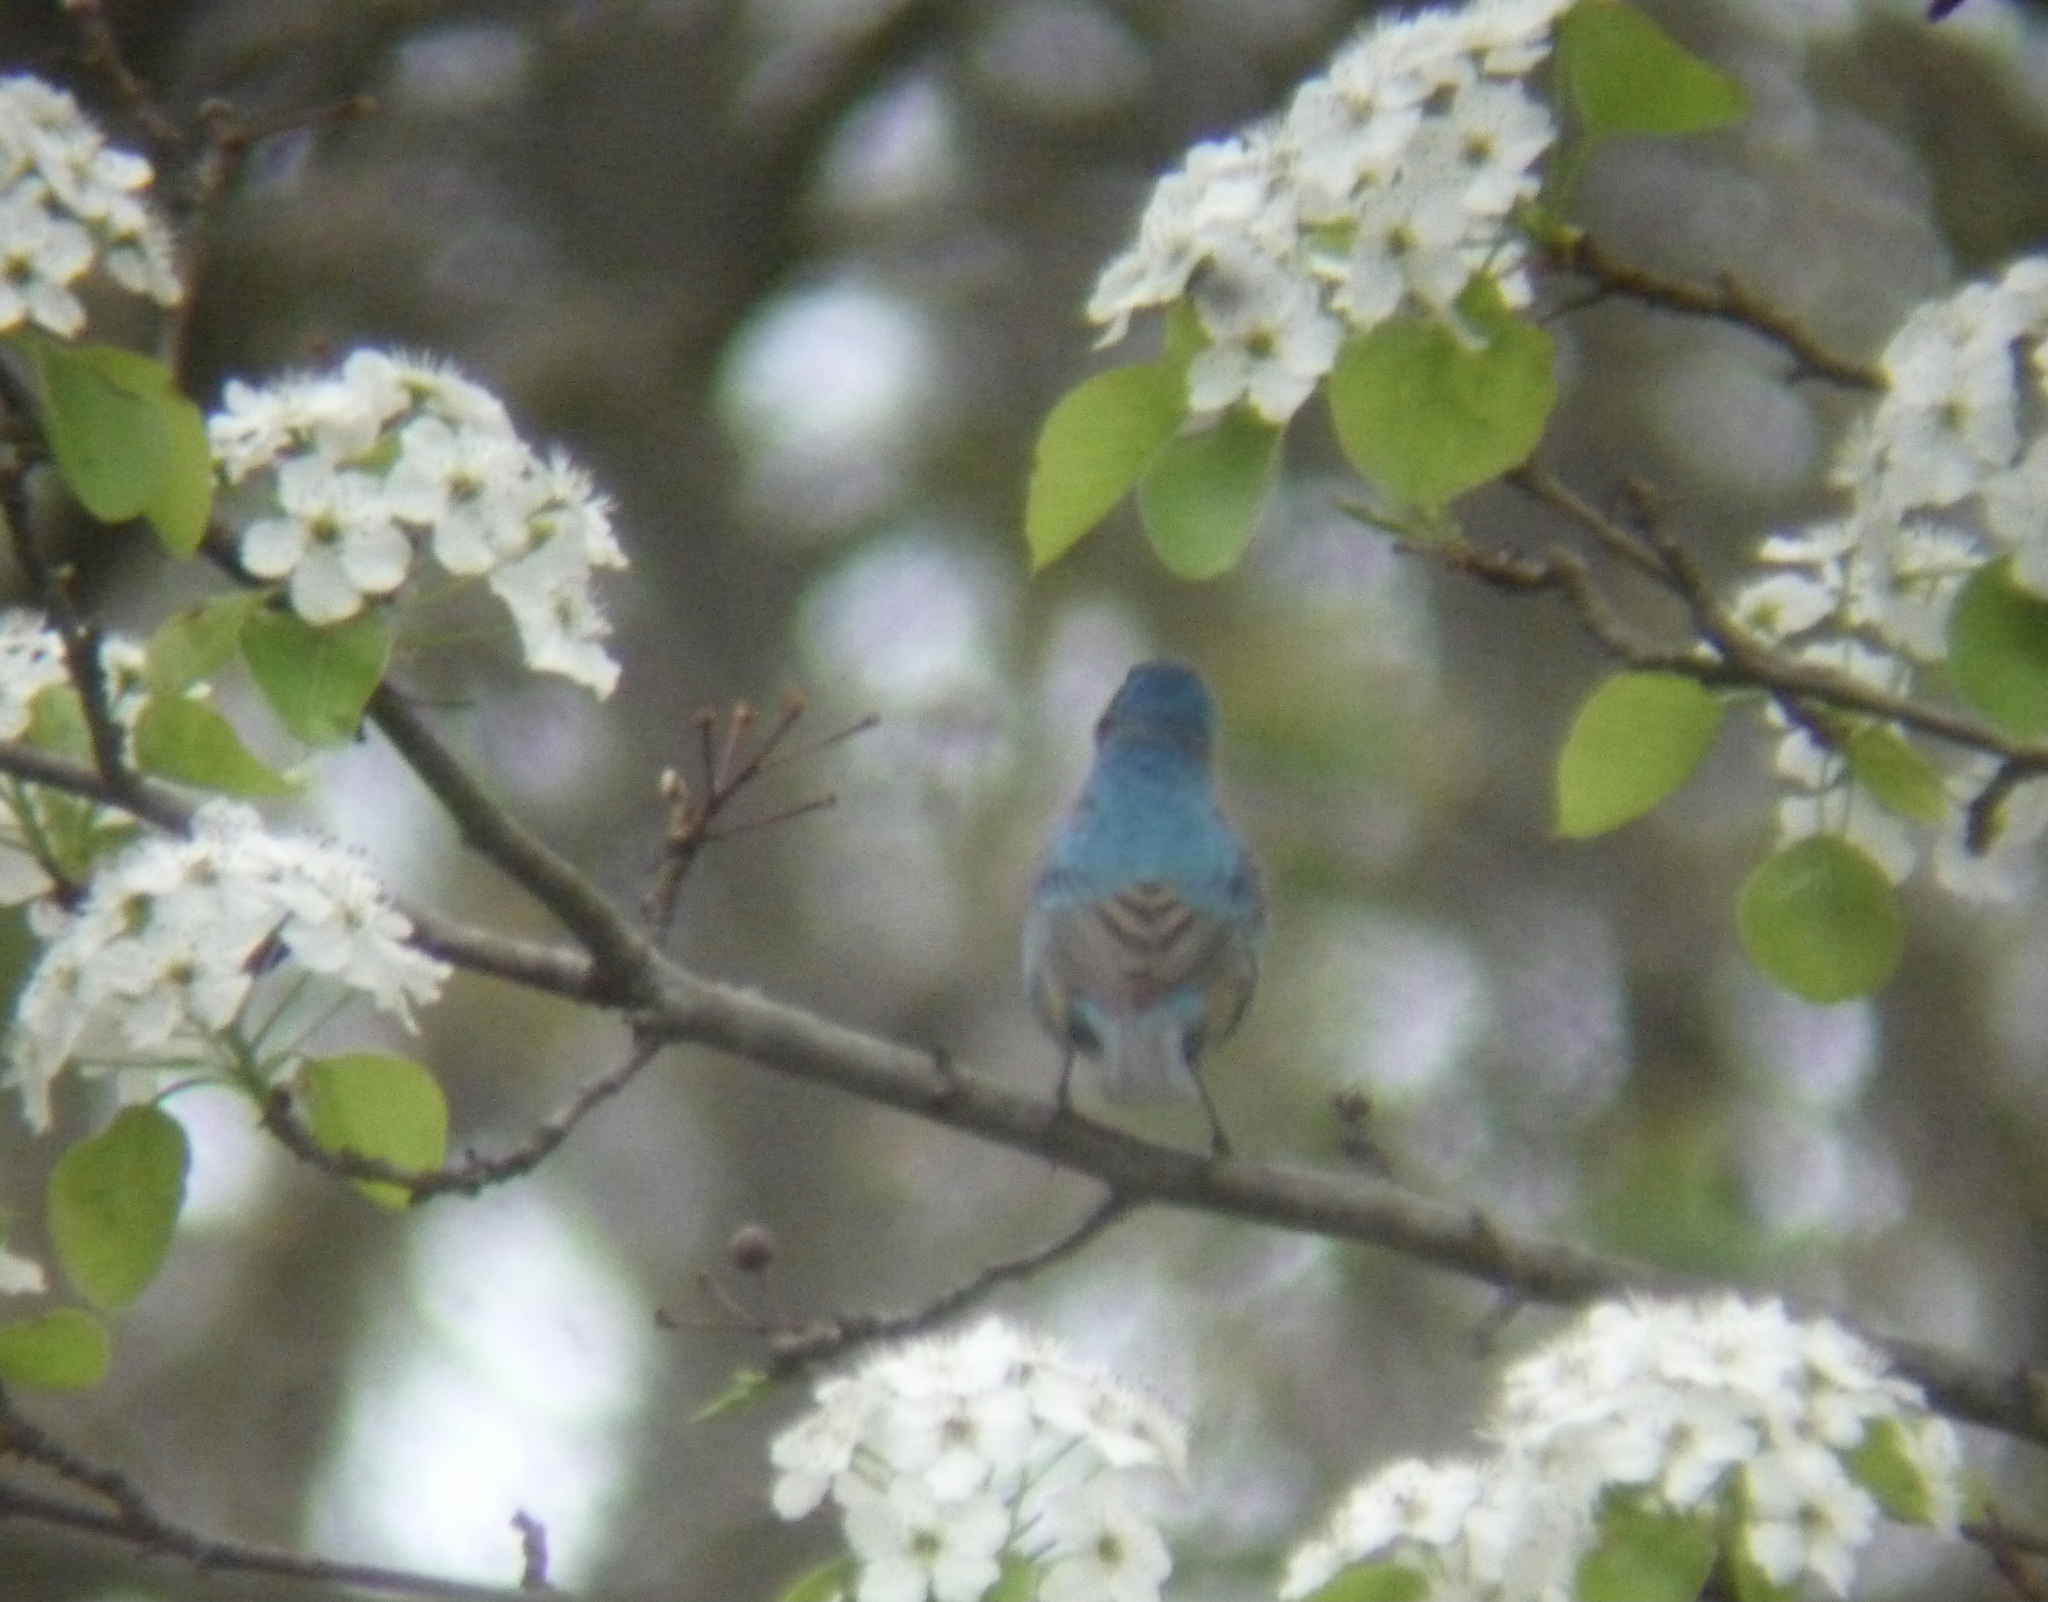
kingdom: Animalia
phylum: Chordata
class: Aves
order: Passeriformes
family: Cardinalidae
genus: Passerina
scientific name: Passerina cyanea
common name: Indigo bunting
